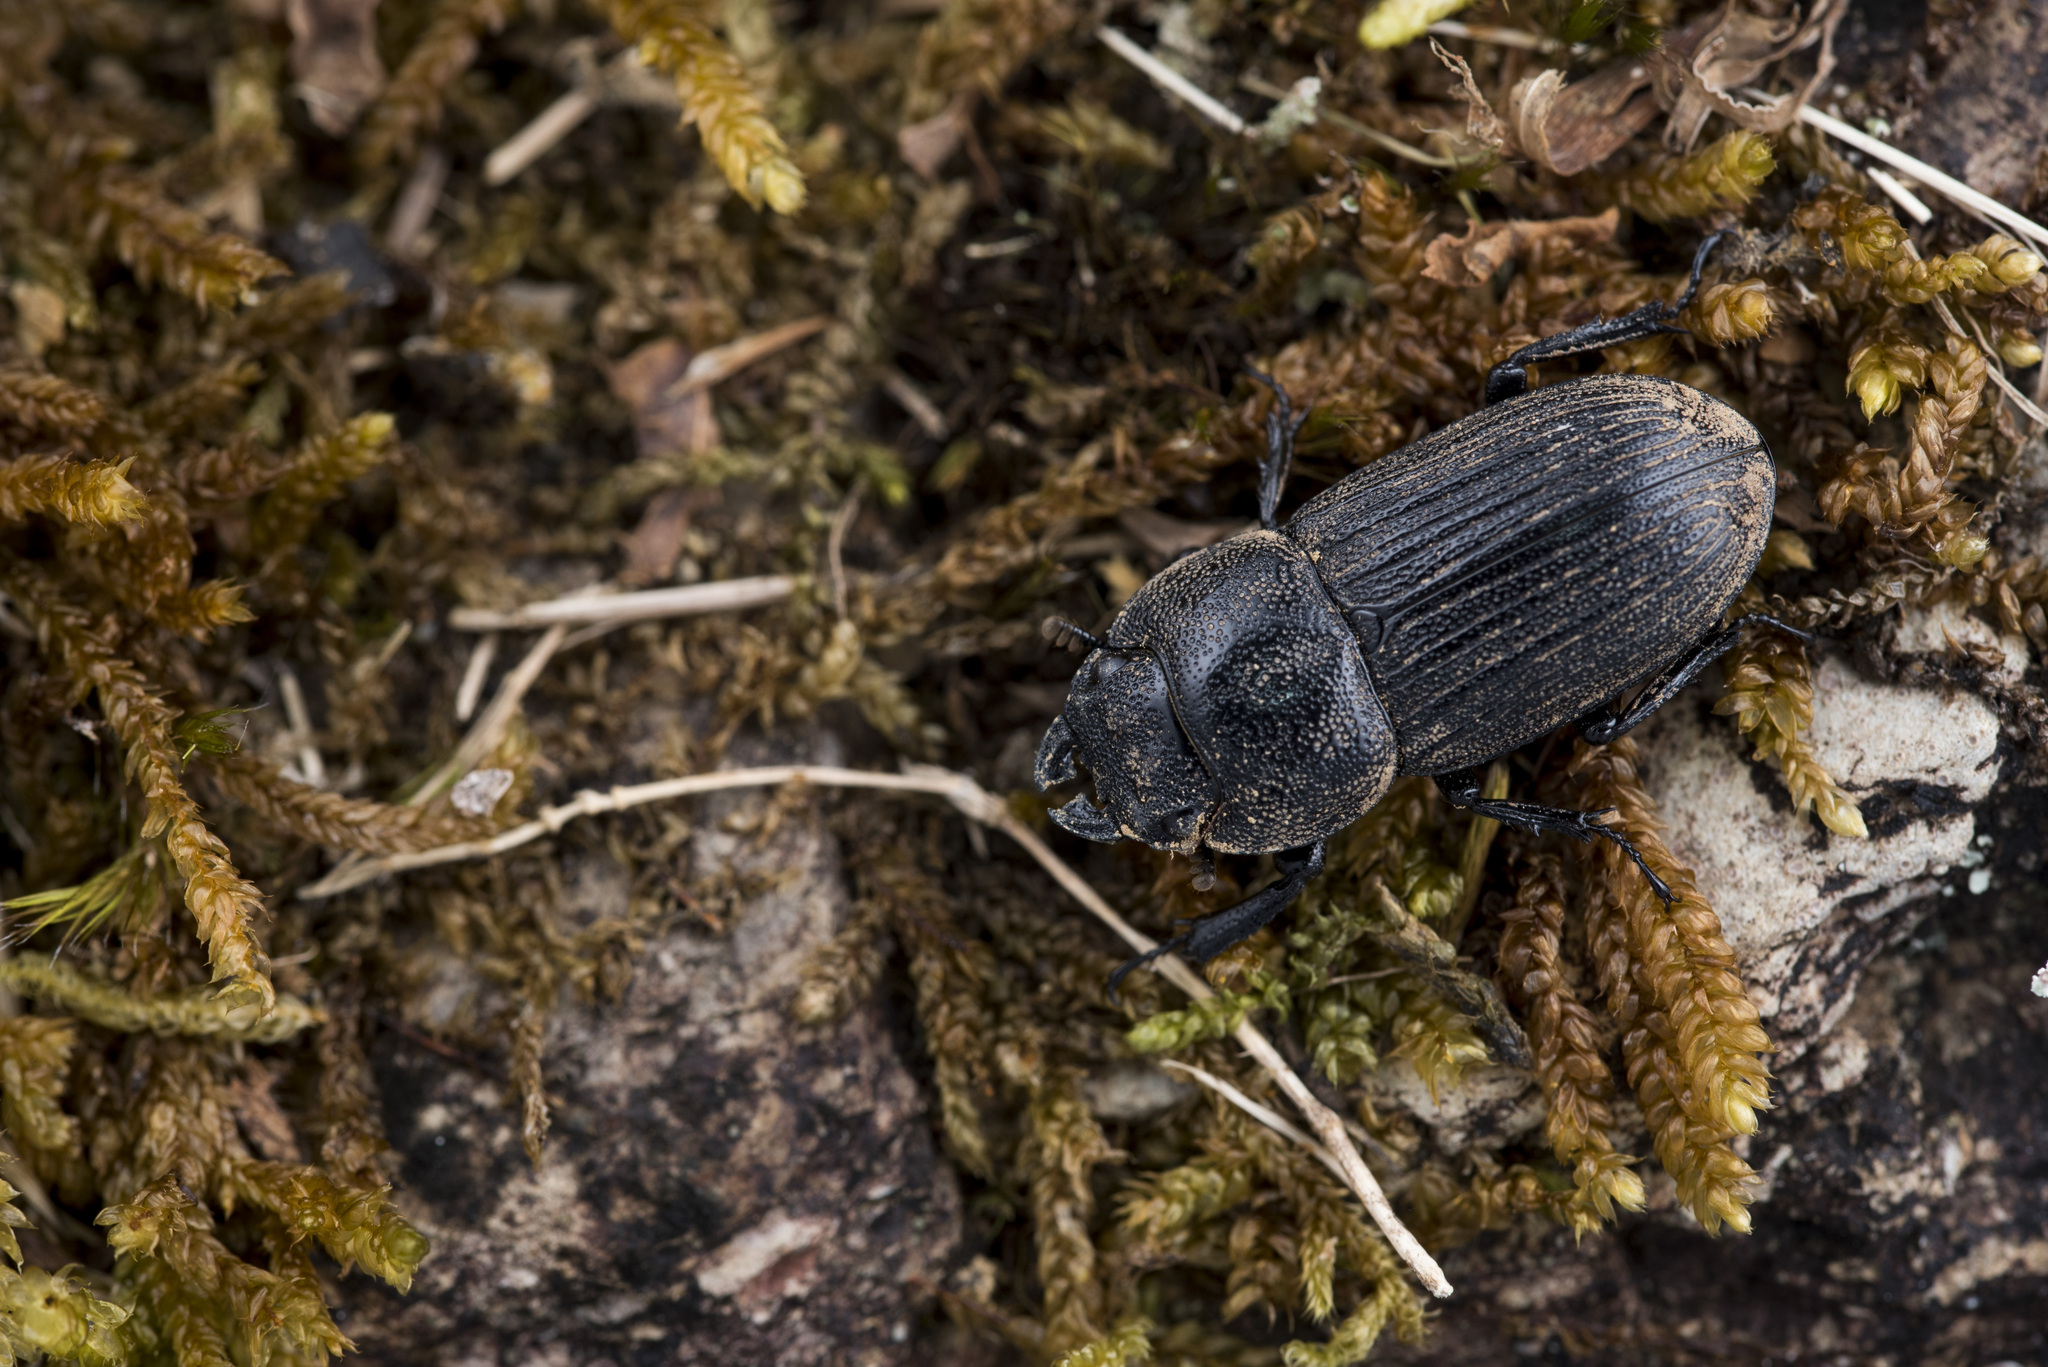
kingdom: Animalia
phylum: Arthropoda
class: Insecta
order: Coleoptera
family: Lucanidae
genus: Aegus
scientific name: Aegus laevicollis
